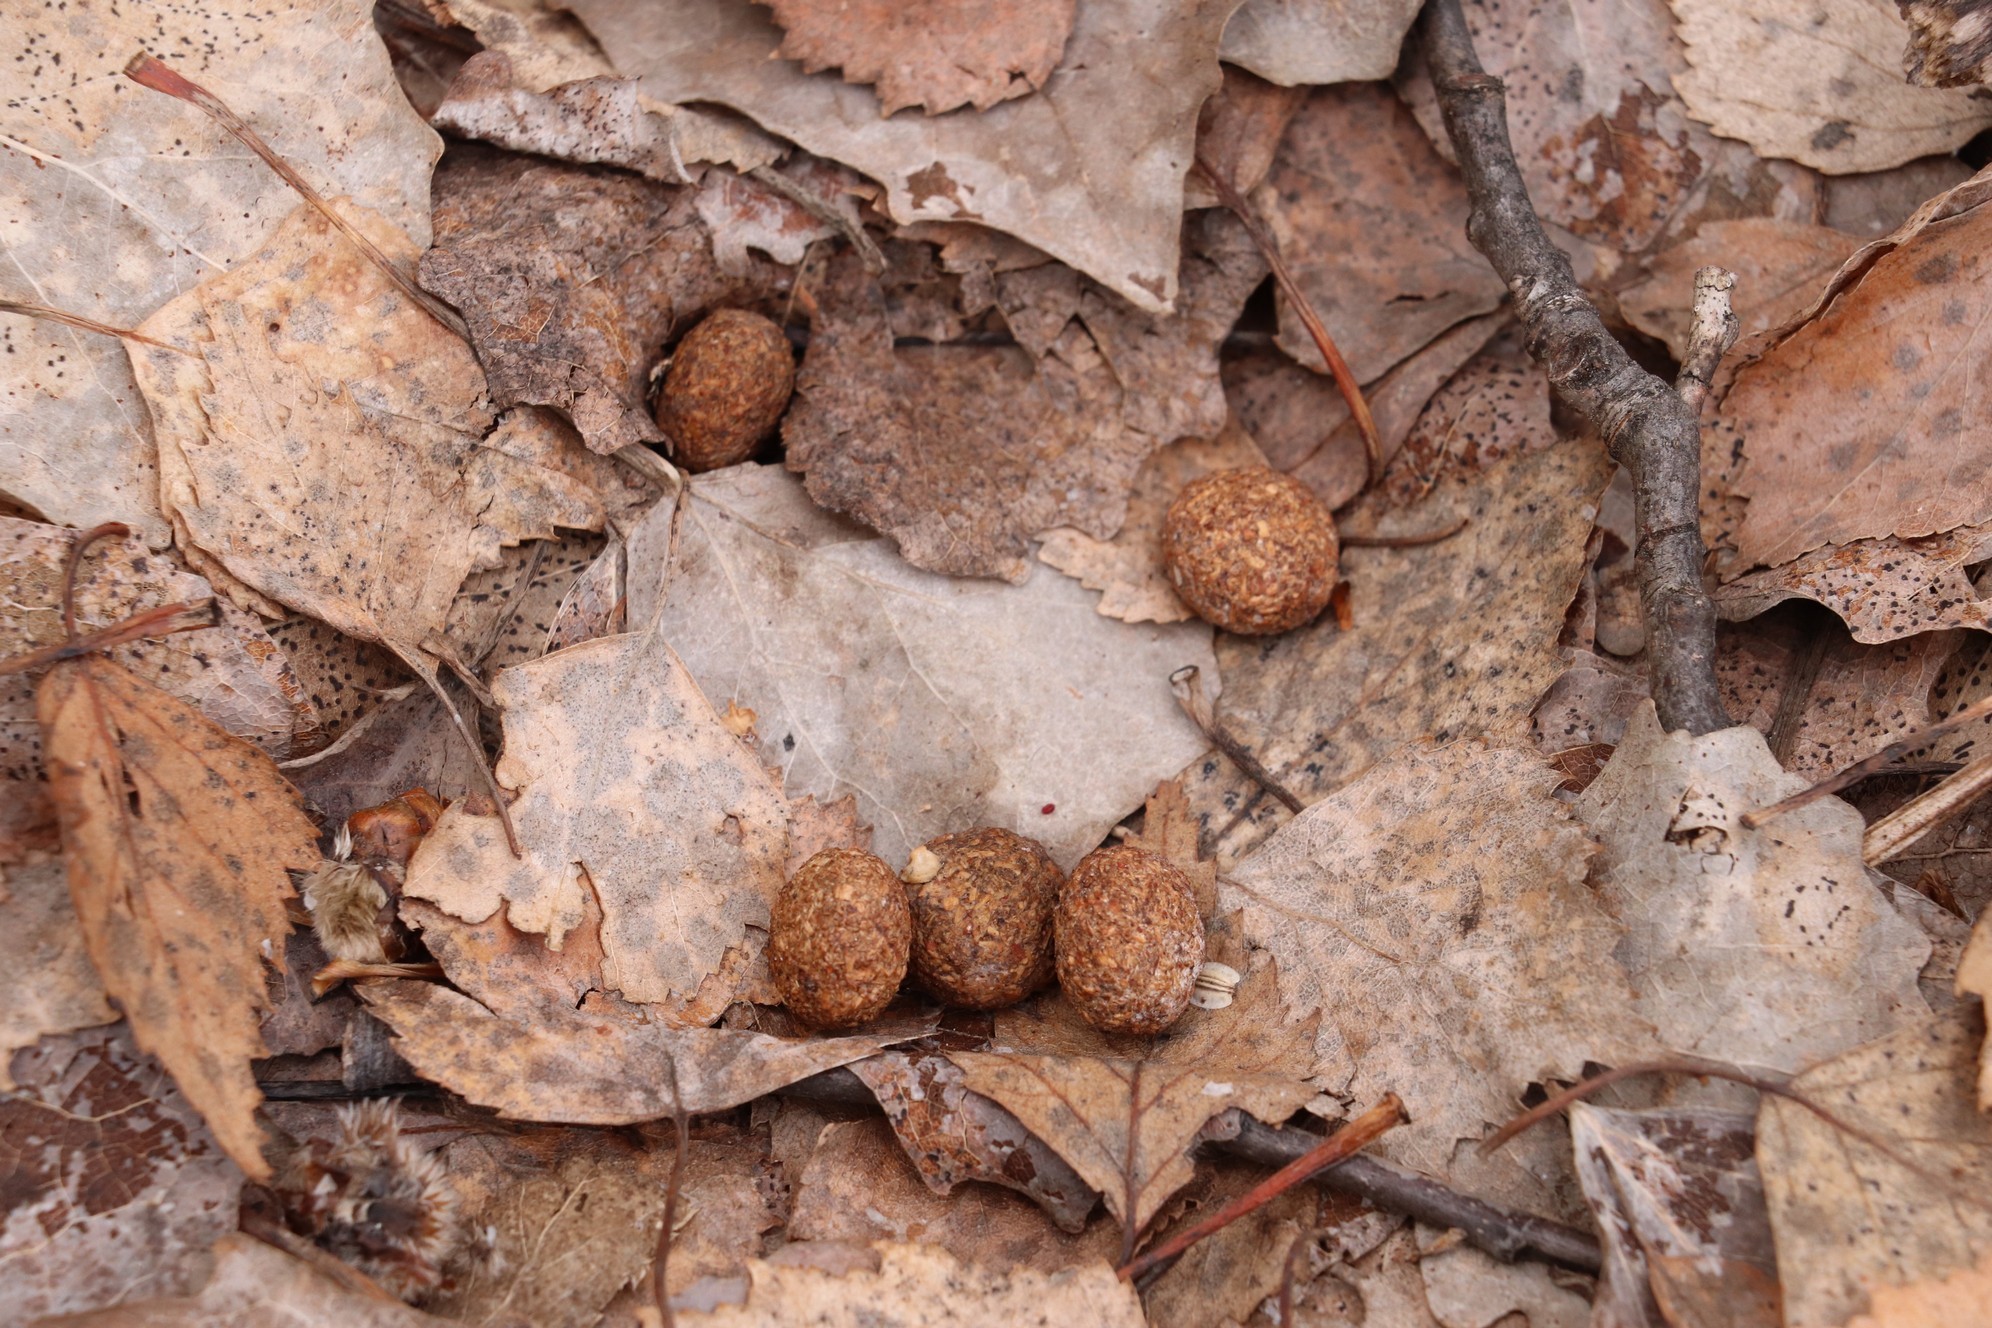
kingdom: Animalia
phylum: Chordata
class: Mammalia
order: Lagomorpha
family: Leporidae
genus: Lepus
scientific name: Lepus timidus
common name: Mountain hare
